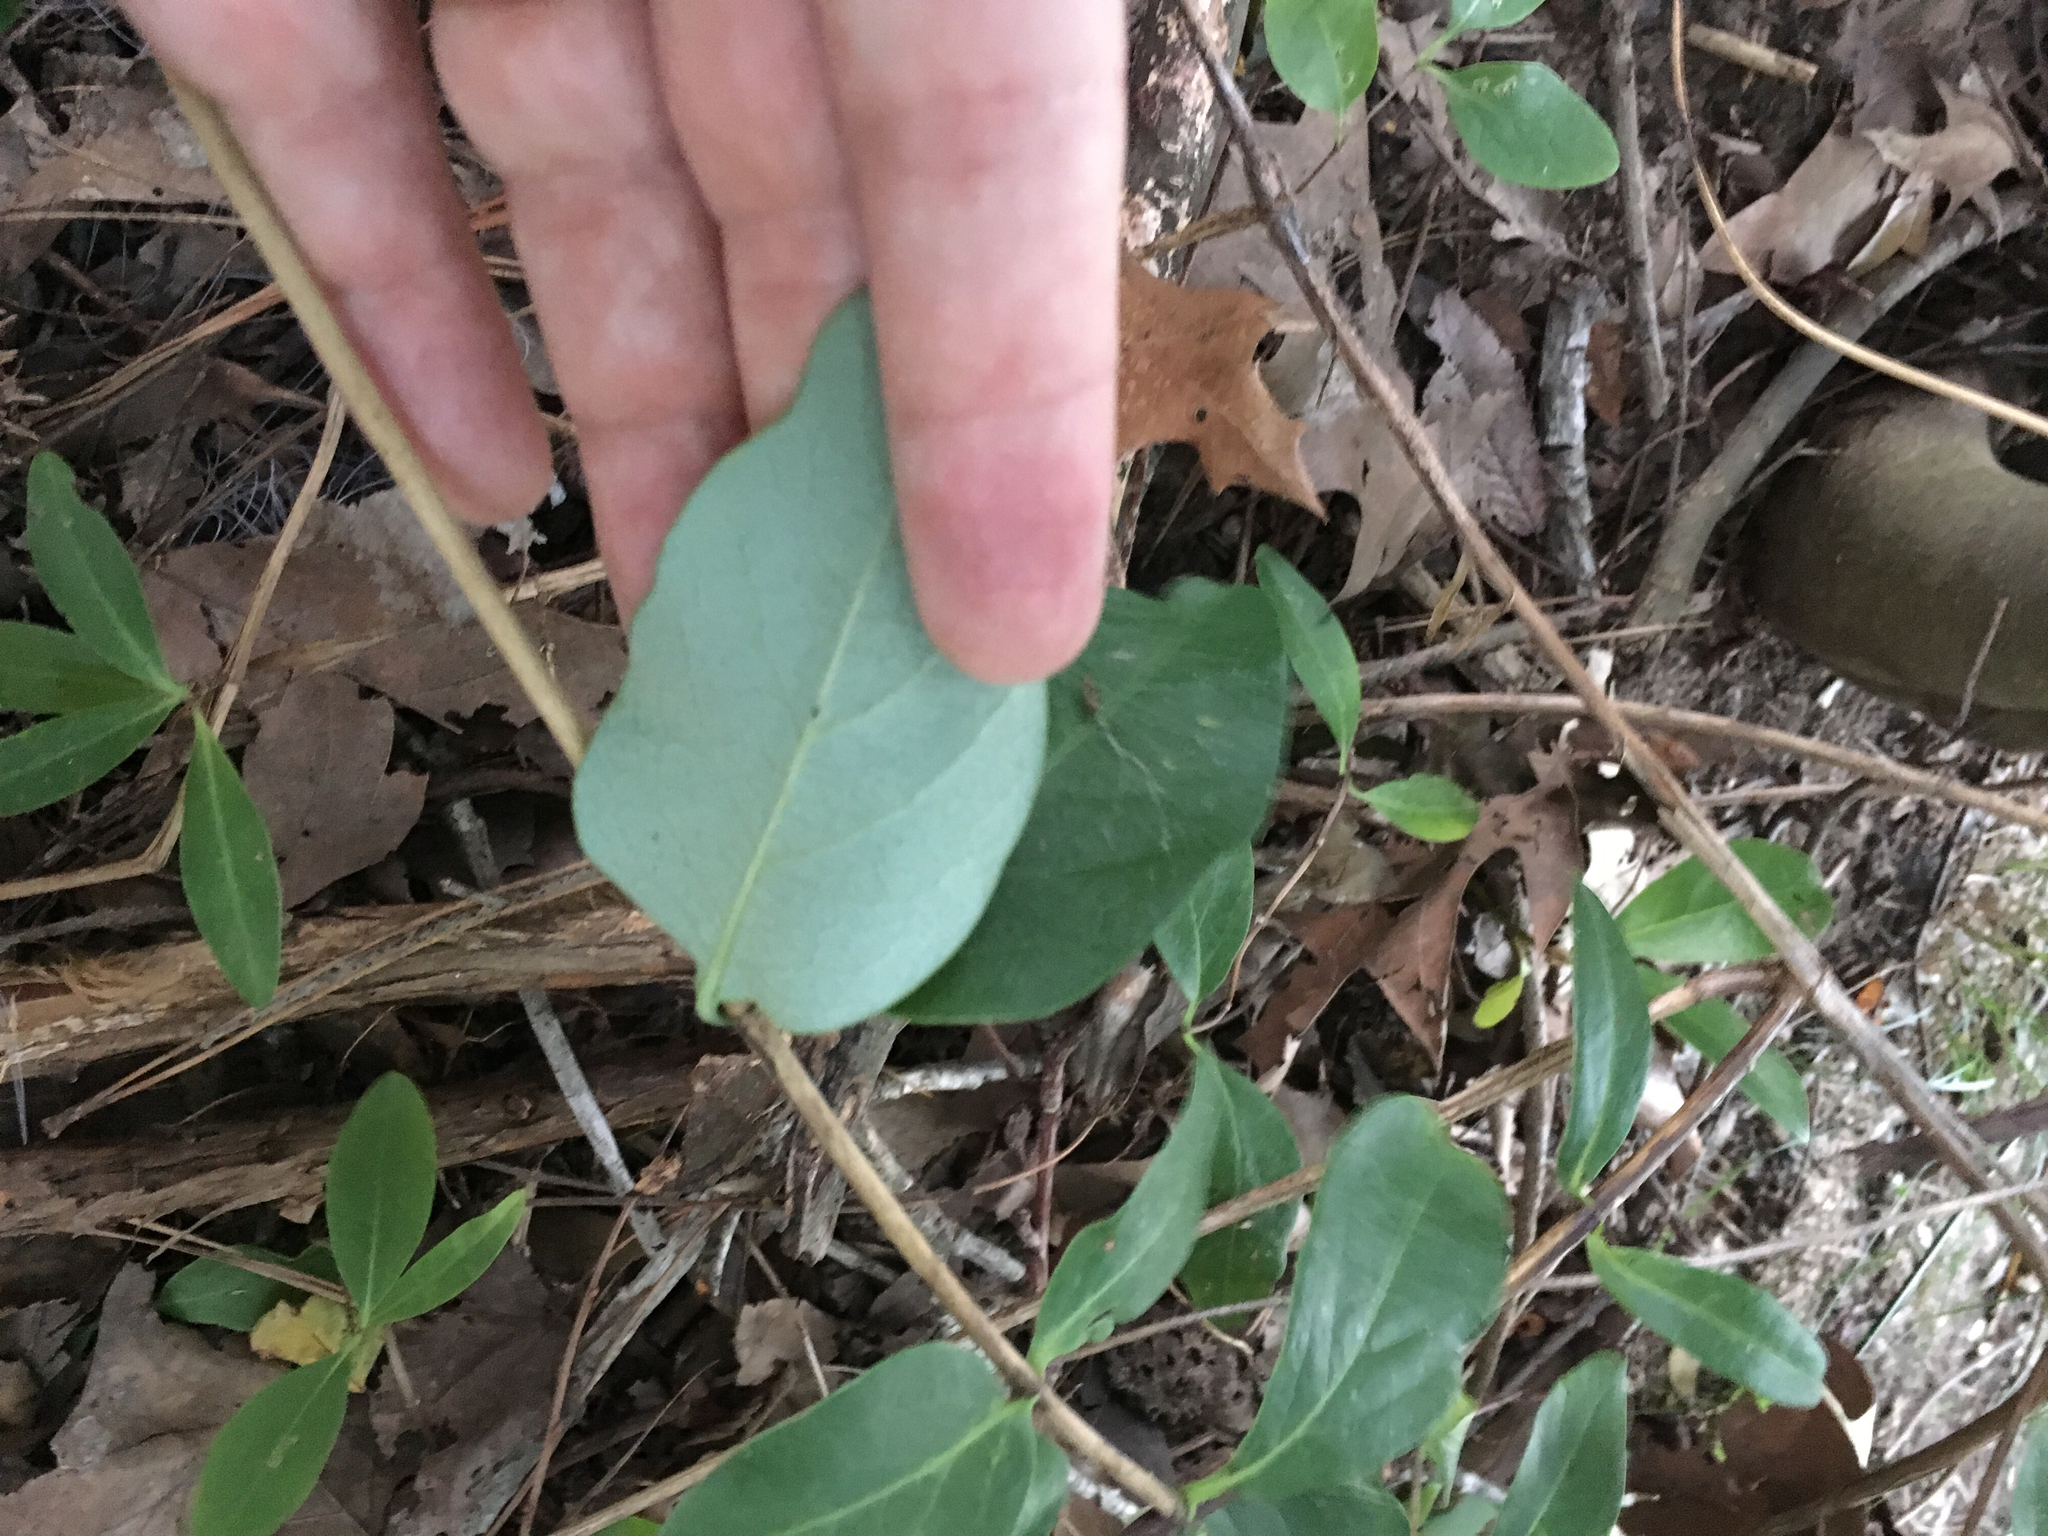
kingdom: Plantae
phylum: Tracheophyta
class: Magnoliopsida
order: Dipsacales
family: Caprifoliaceae
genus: Lonicera
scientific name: Lonicera sempervirens
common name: Coral honeysuckle
